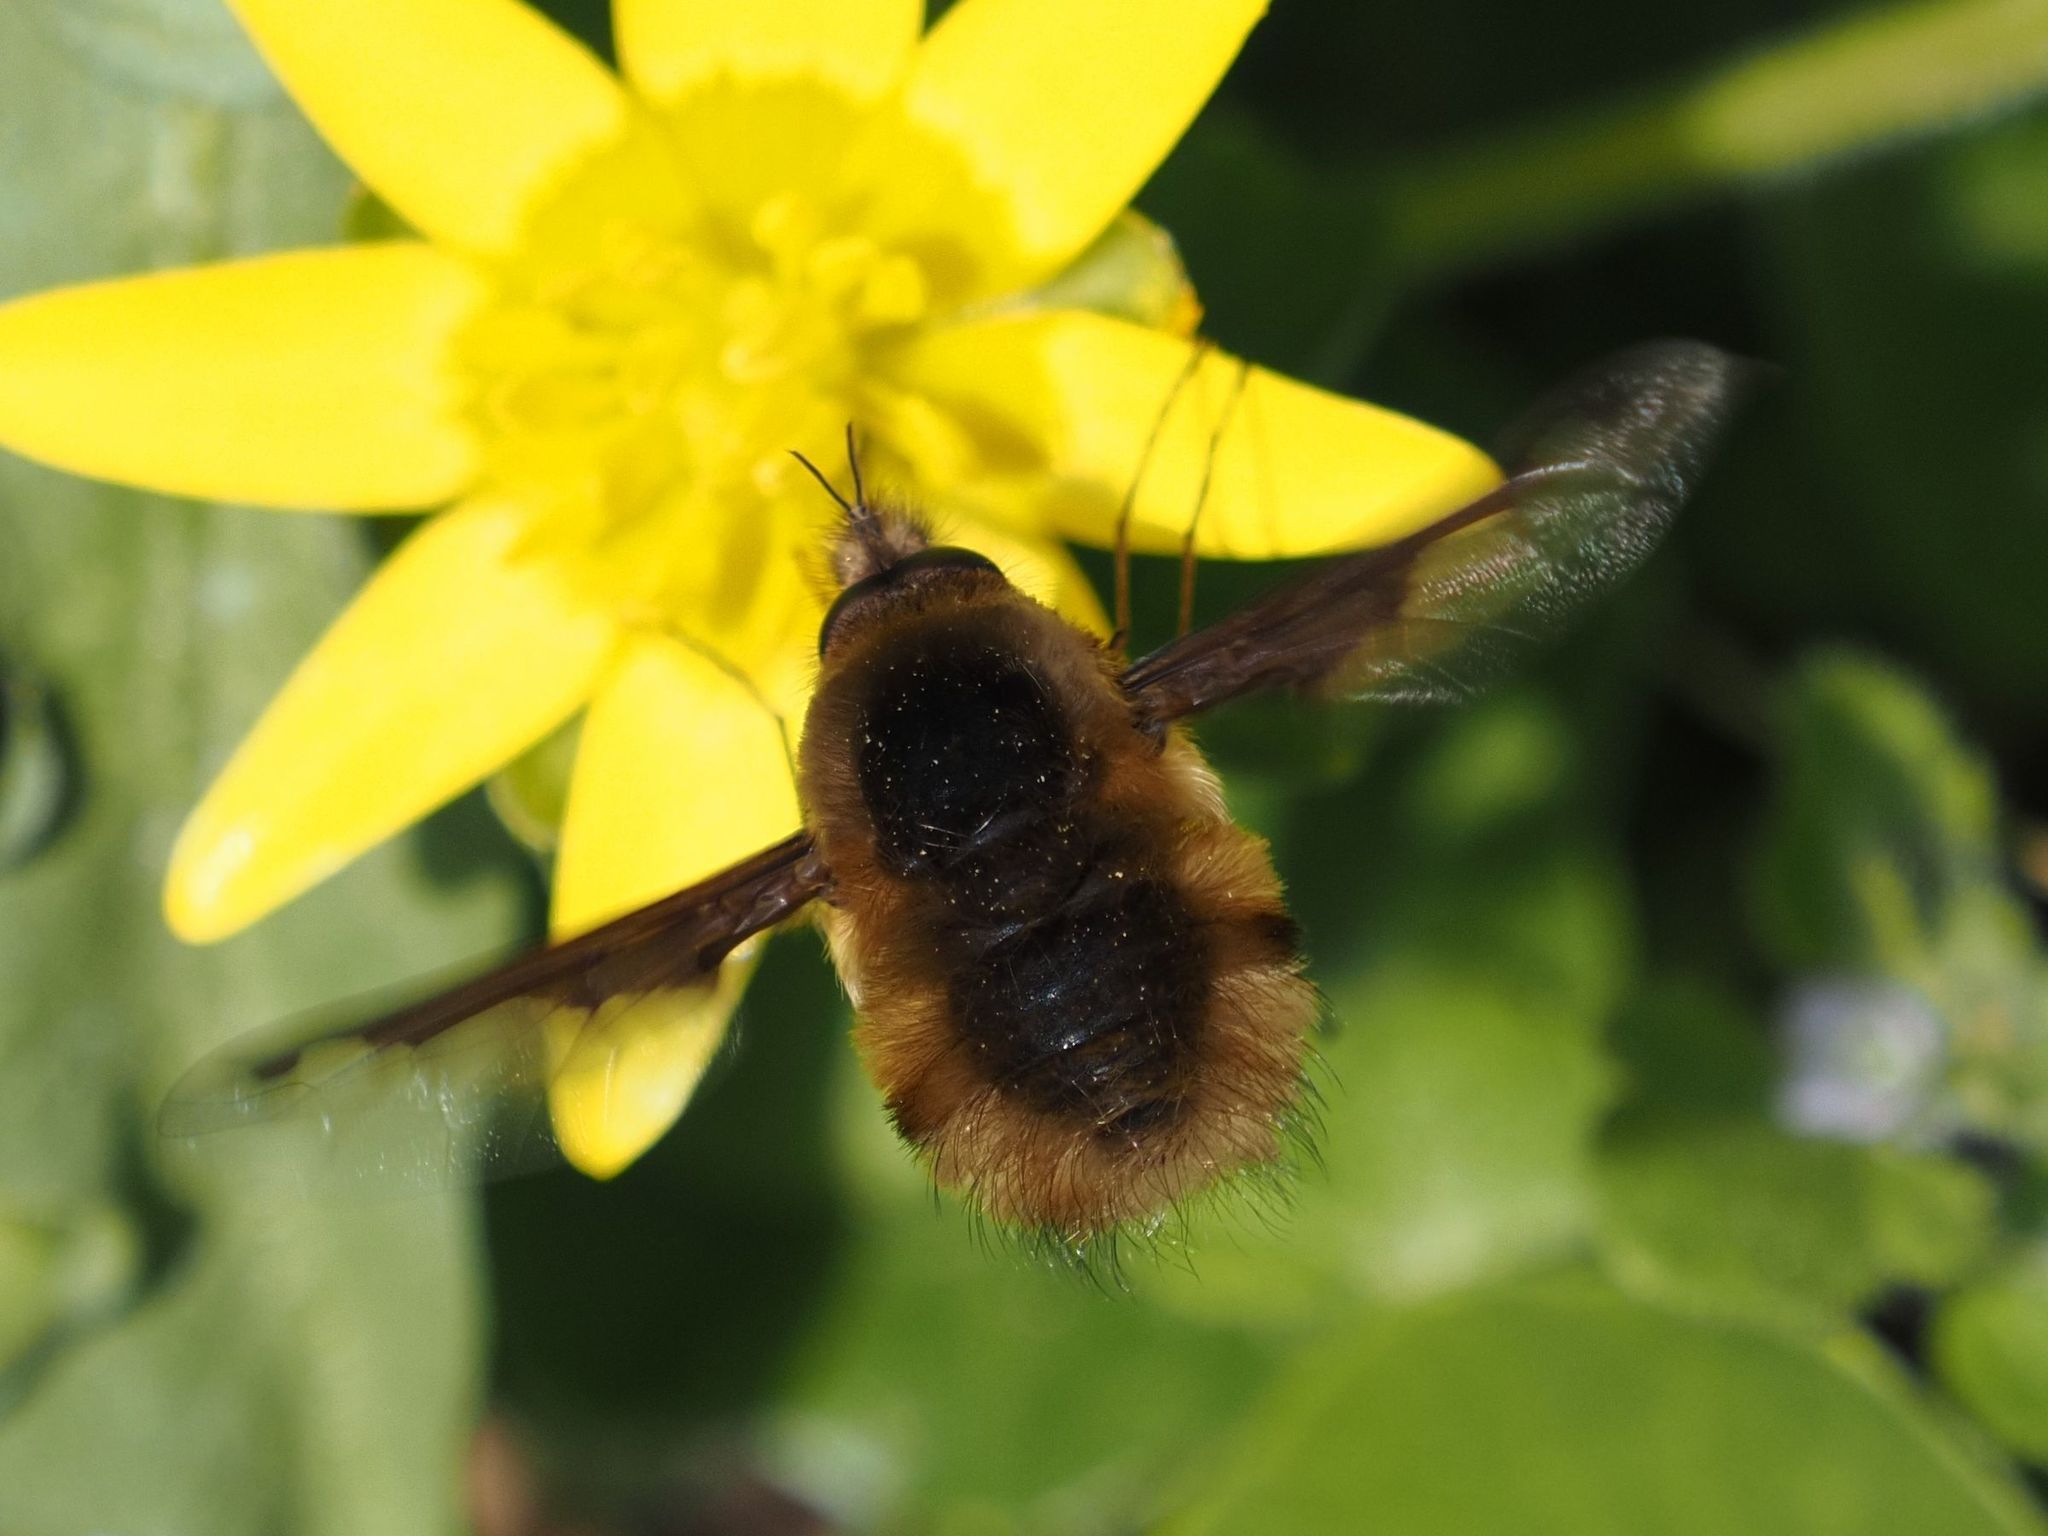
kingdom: Animalia
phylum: Arthropoda
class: Insecta
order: Diptera
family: Bombyliidae
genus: Bombylius
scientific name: Bombylius major
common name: Bee fly
